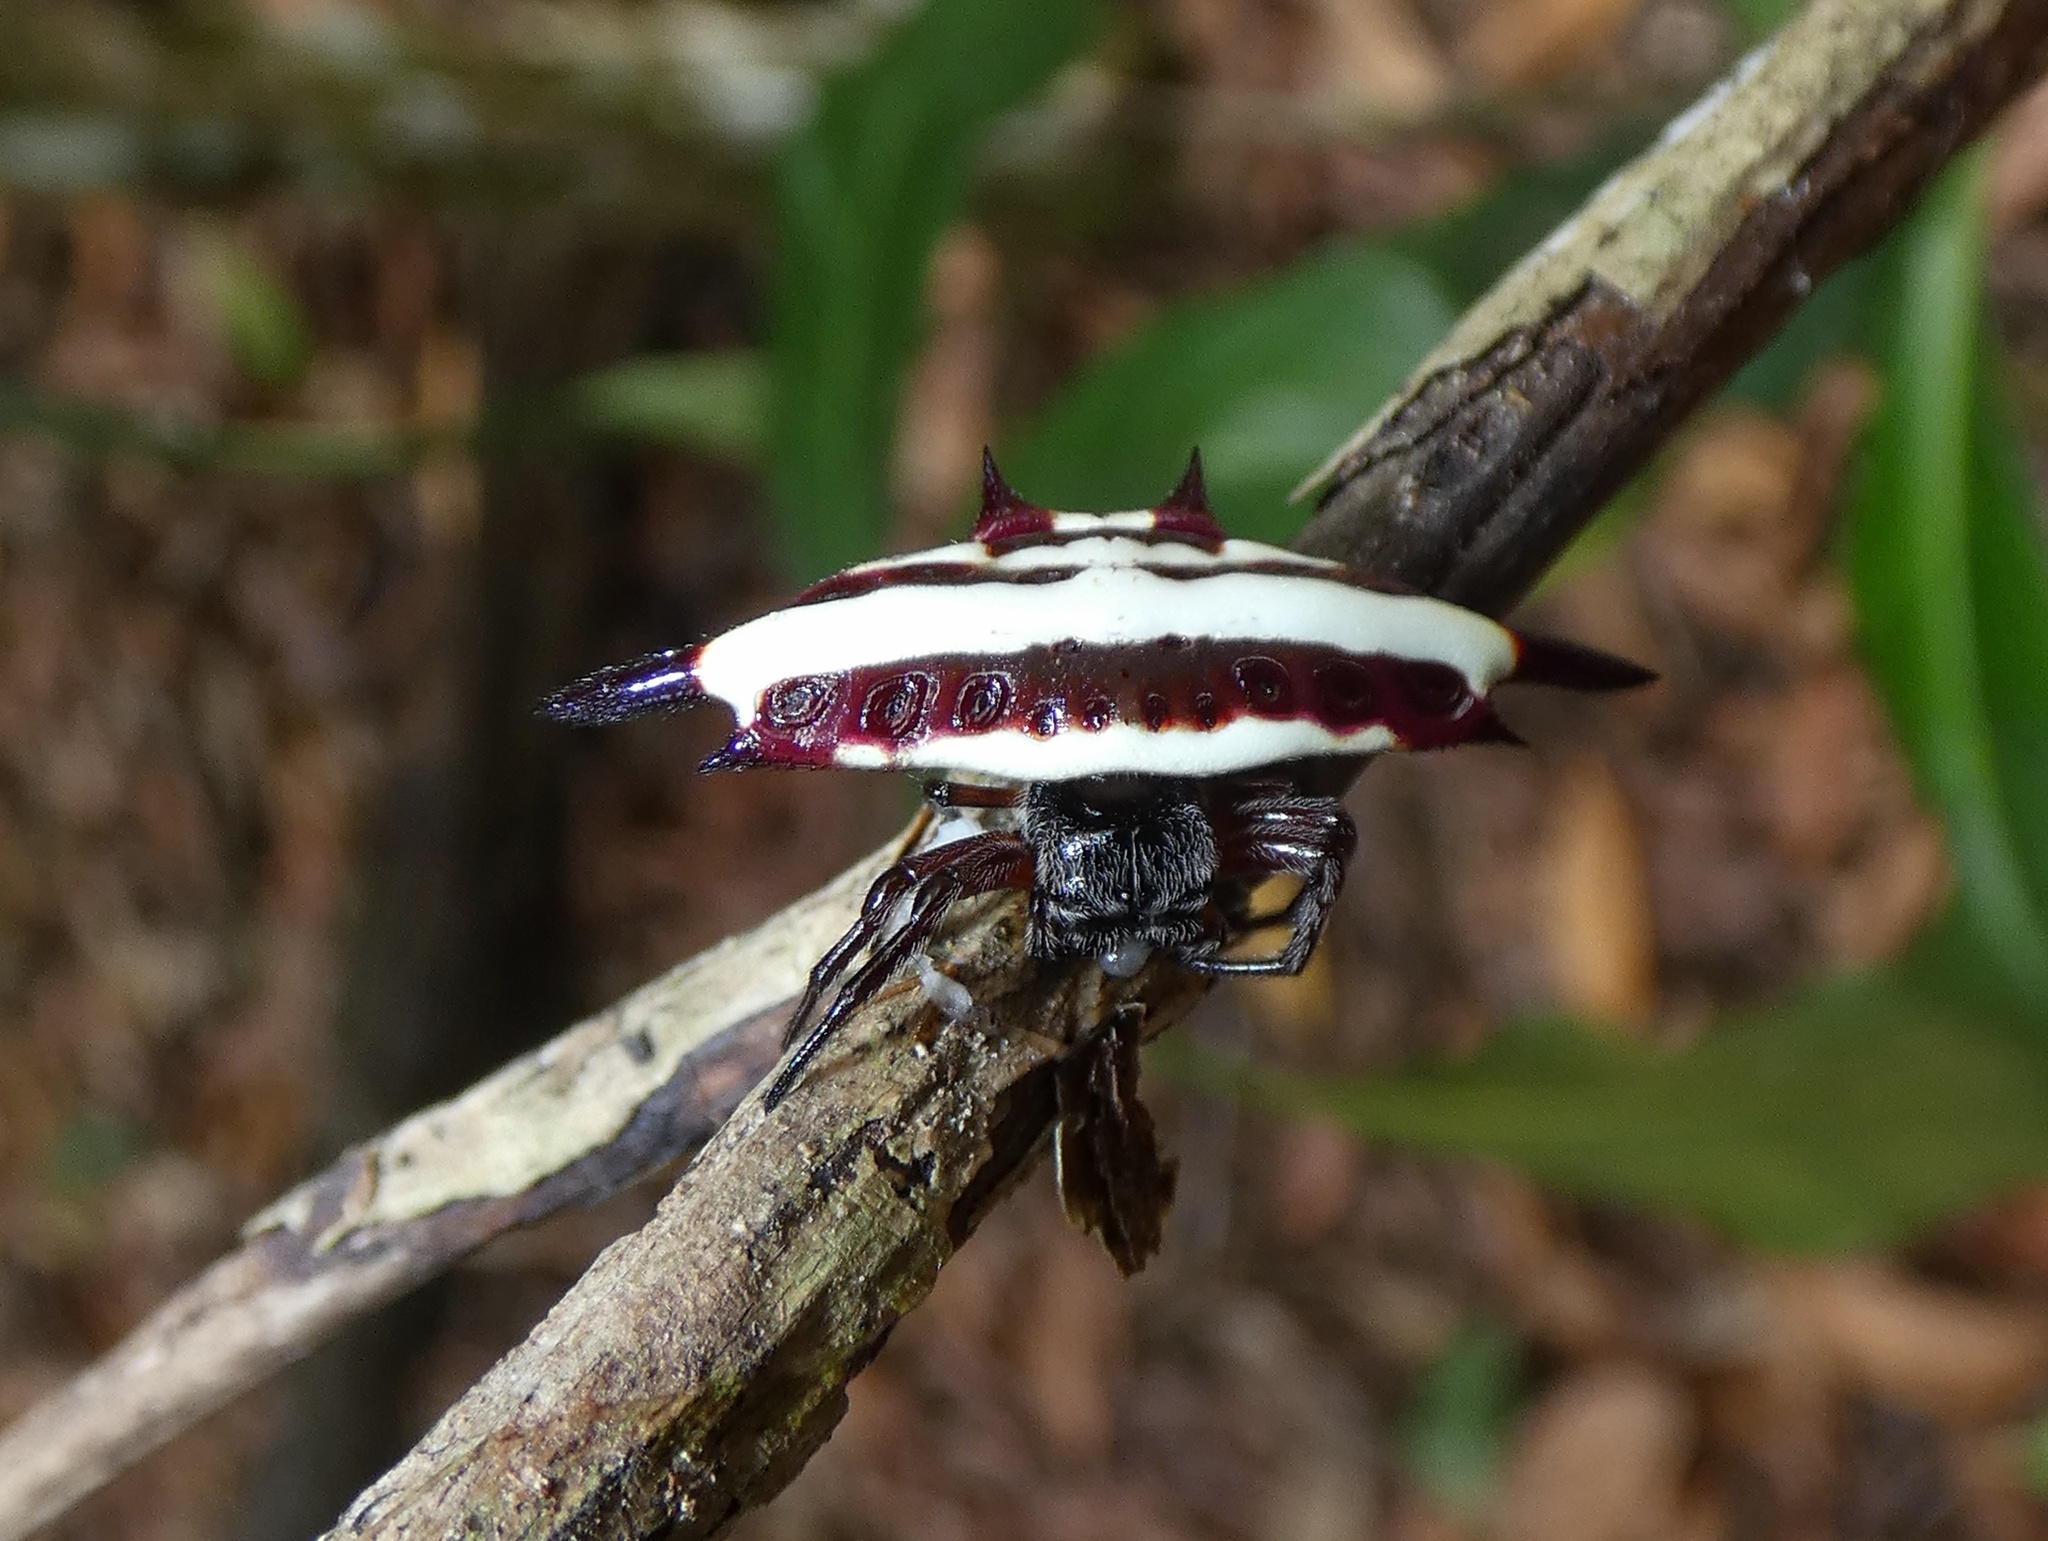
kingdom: Animalia
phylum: Arthropoda
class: Arachnida
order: Araneae
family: Araneidae
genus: Gasteracantha
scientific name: Gasteracantha fornicata
